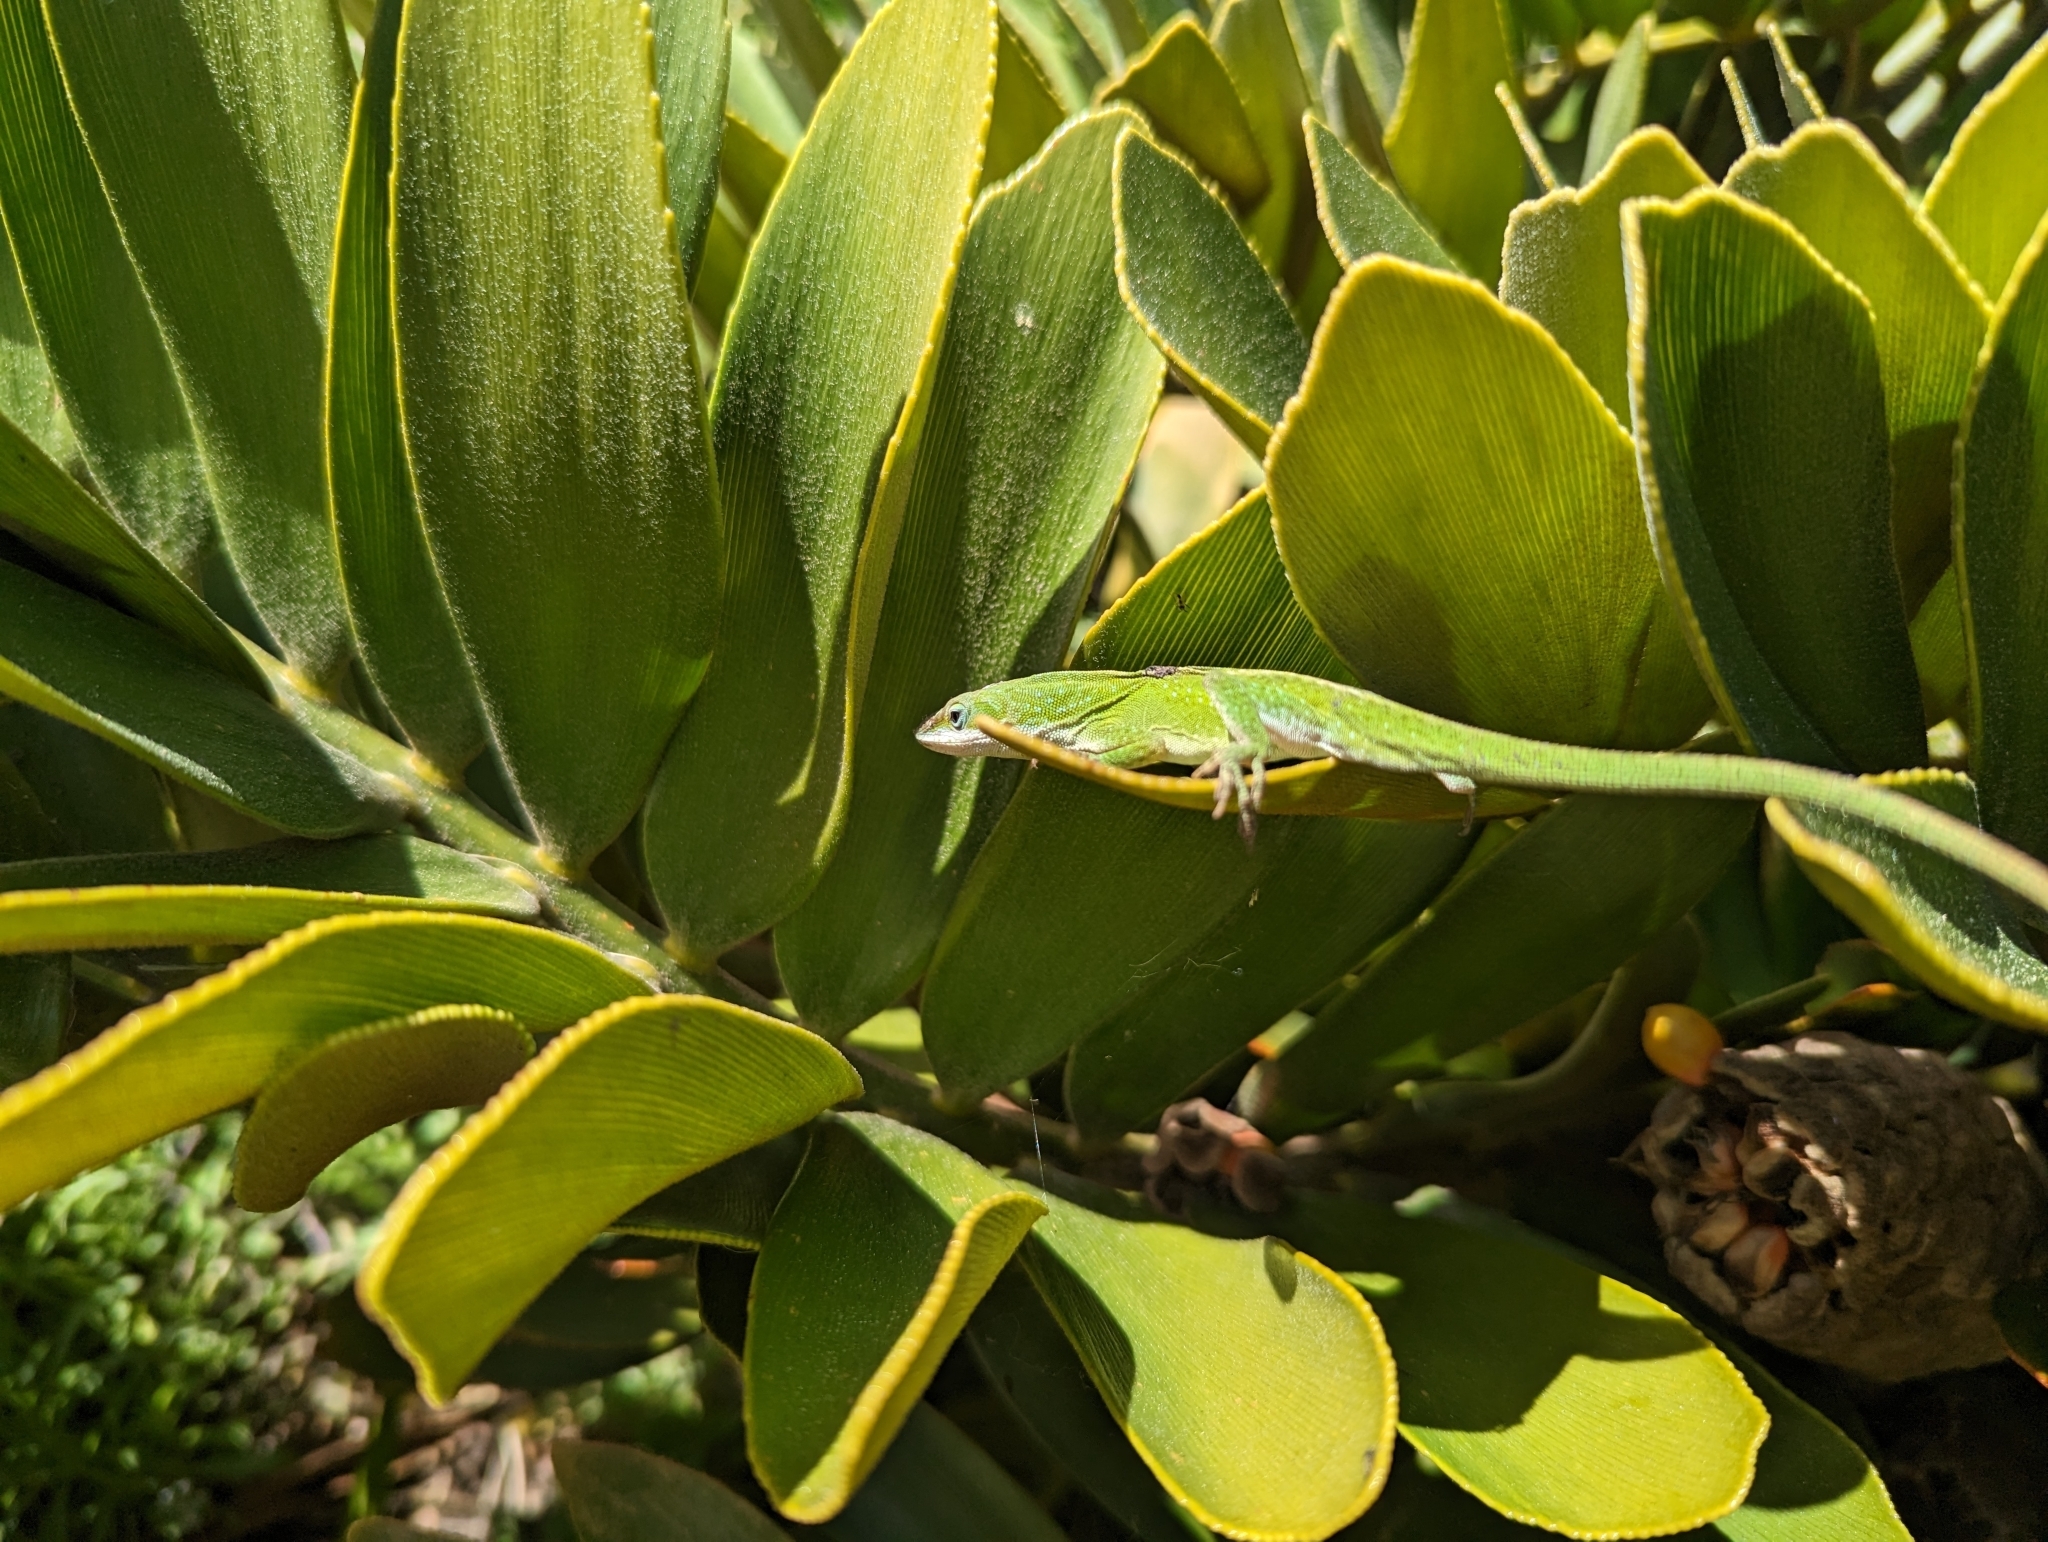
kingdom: Animalia
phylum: Chordata
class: Squamata
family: Dactyloidae
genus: Anolis
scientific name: Anolis carolinensis
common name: Green anole
